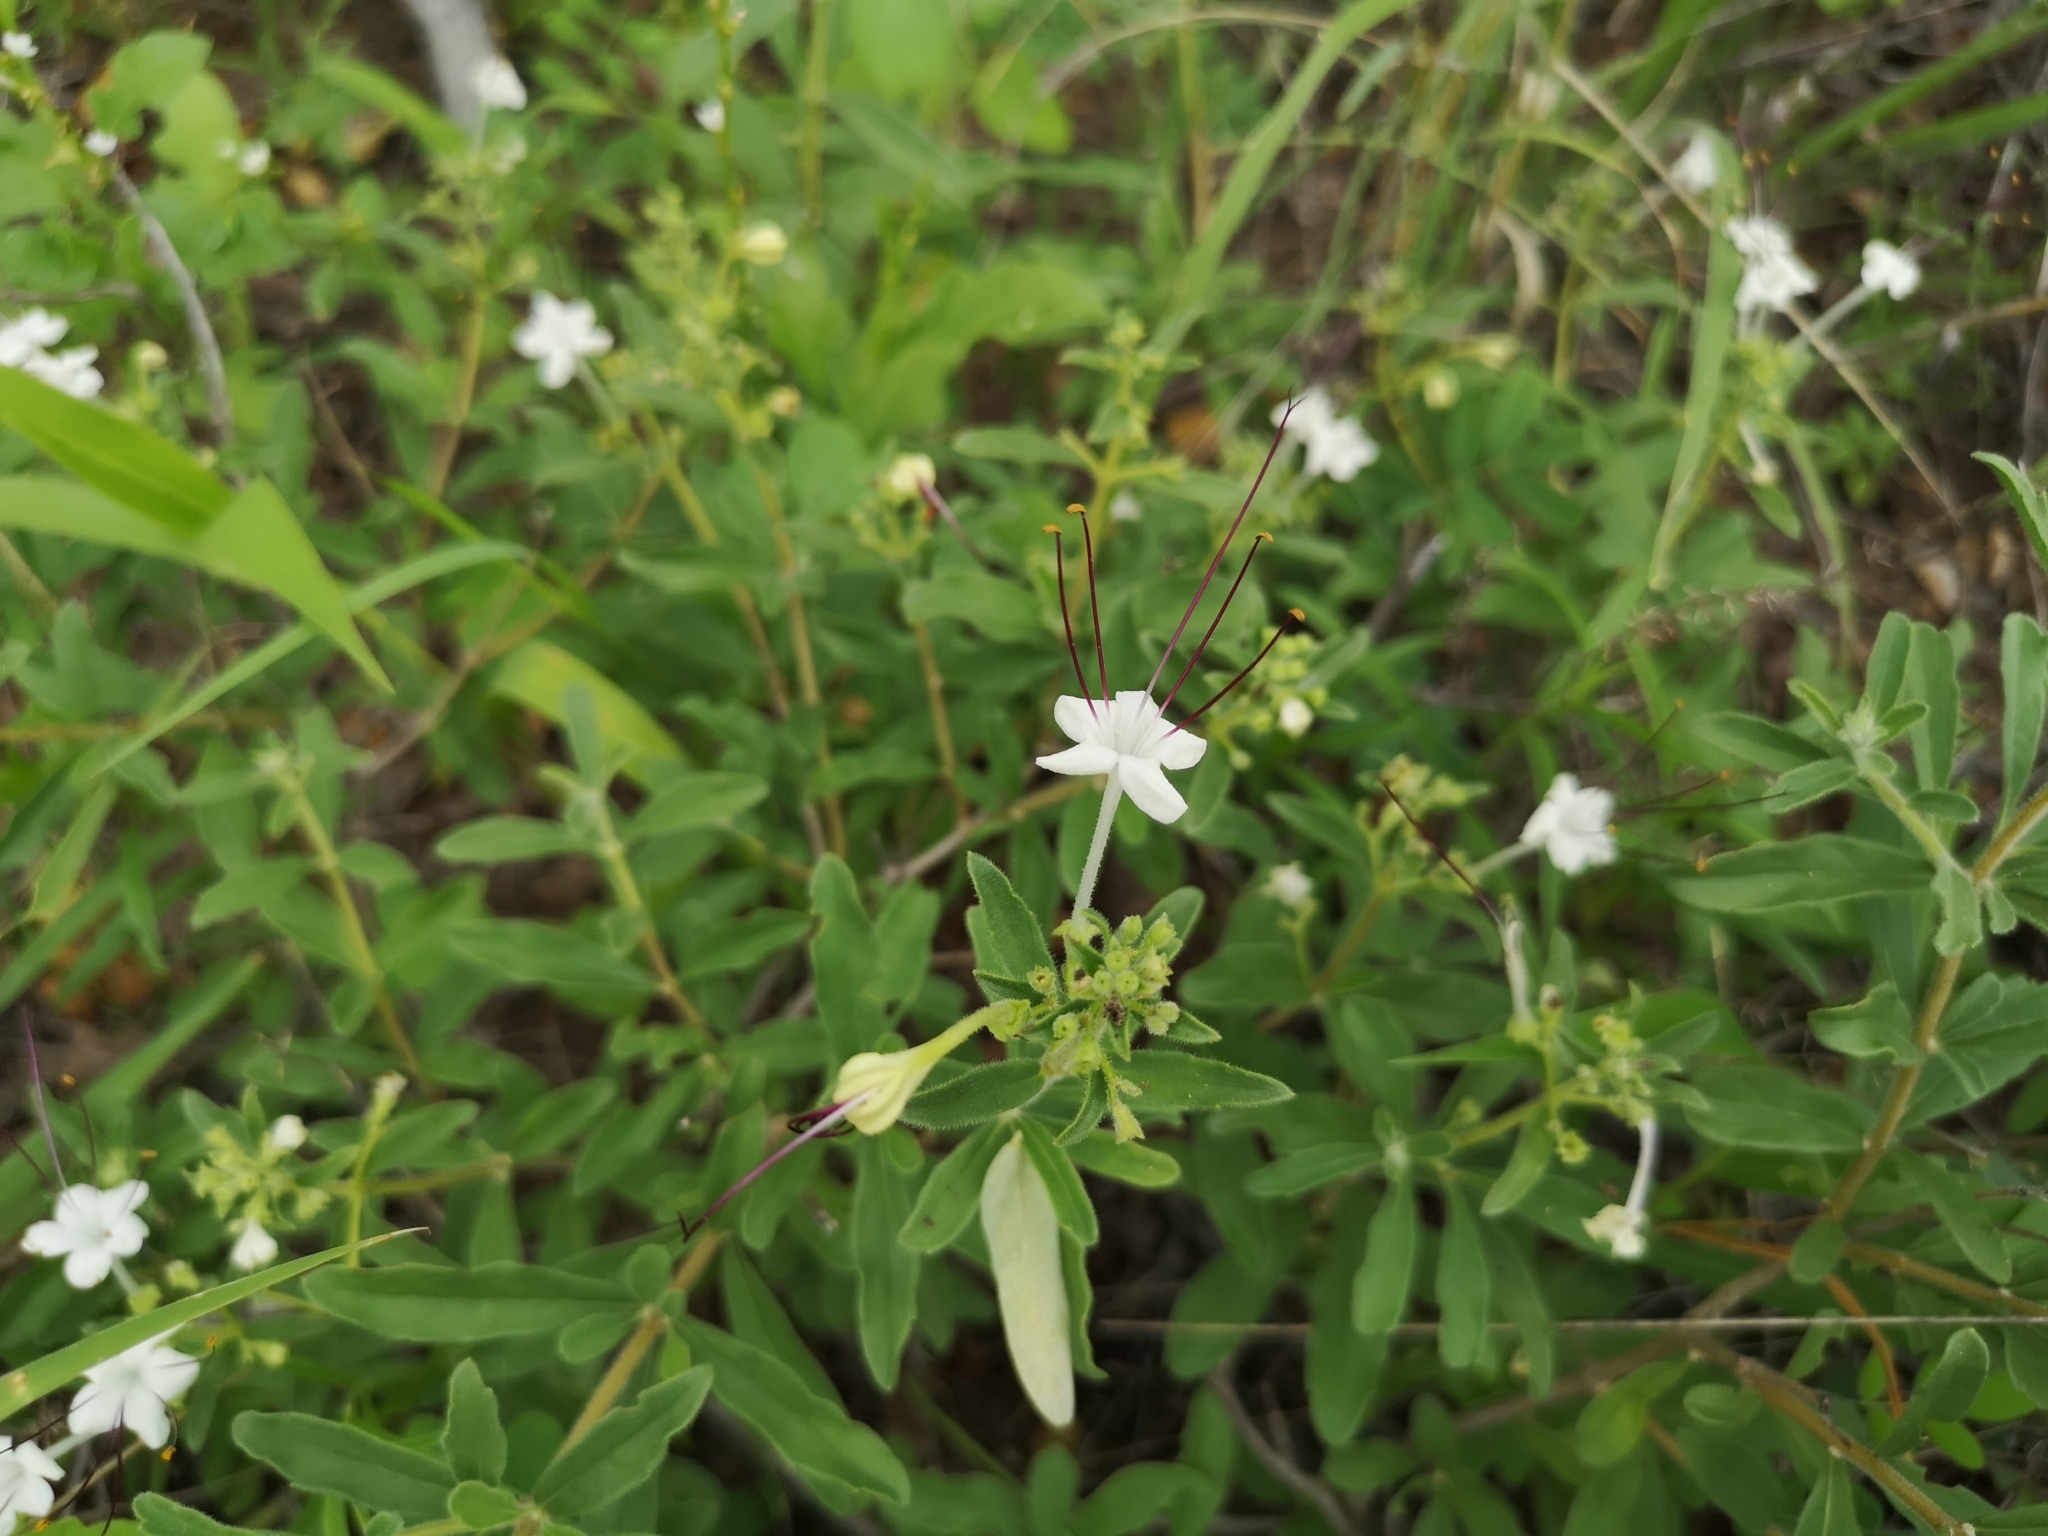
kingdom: Plantae
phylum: Tracheophyta
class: Magnoliopsida
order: Lamiales
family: Lamiaceae
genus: Clerodendrum
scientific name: Clerodendrum ternatum
